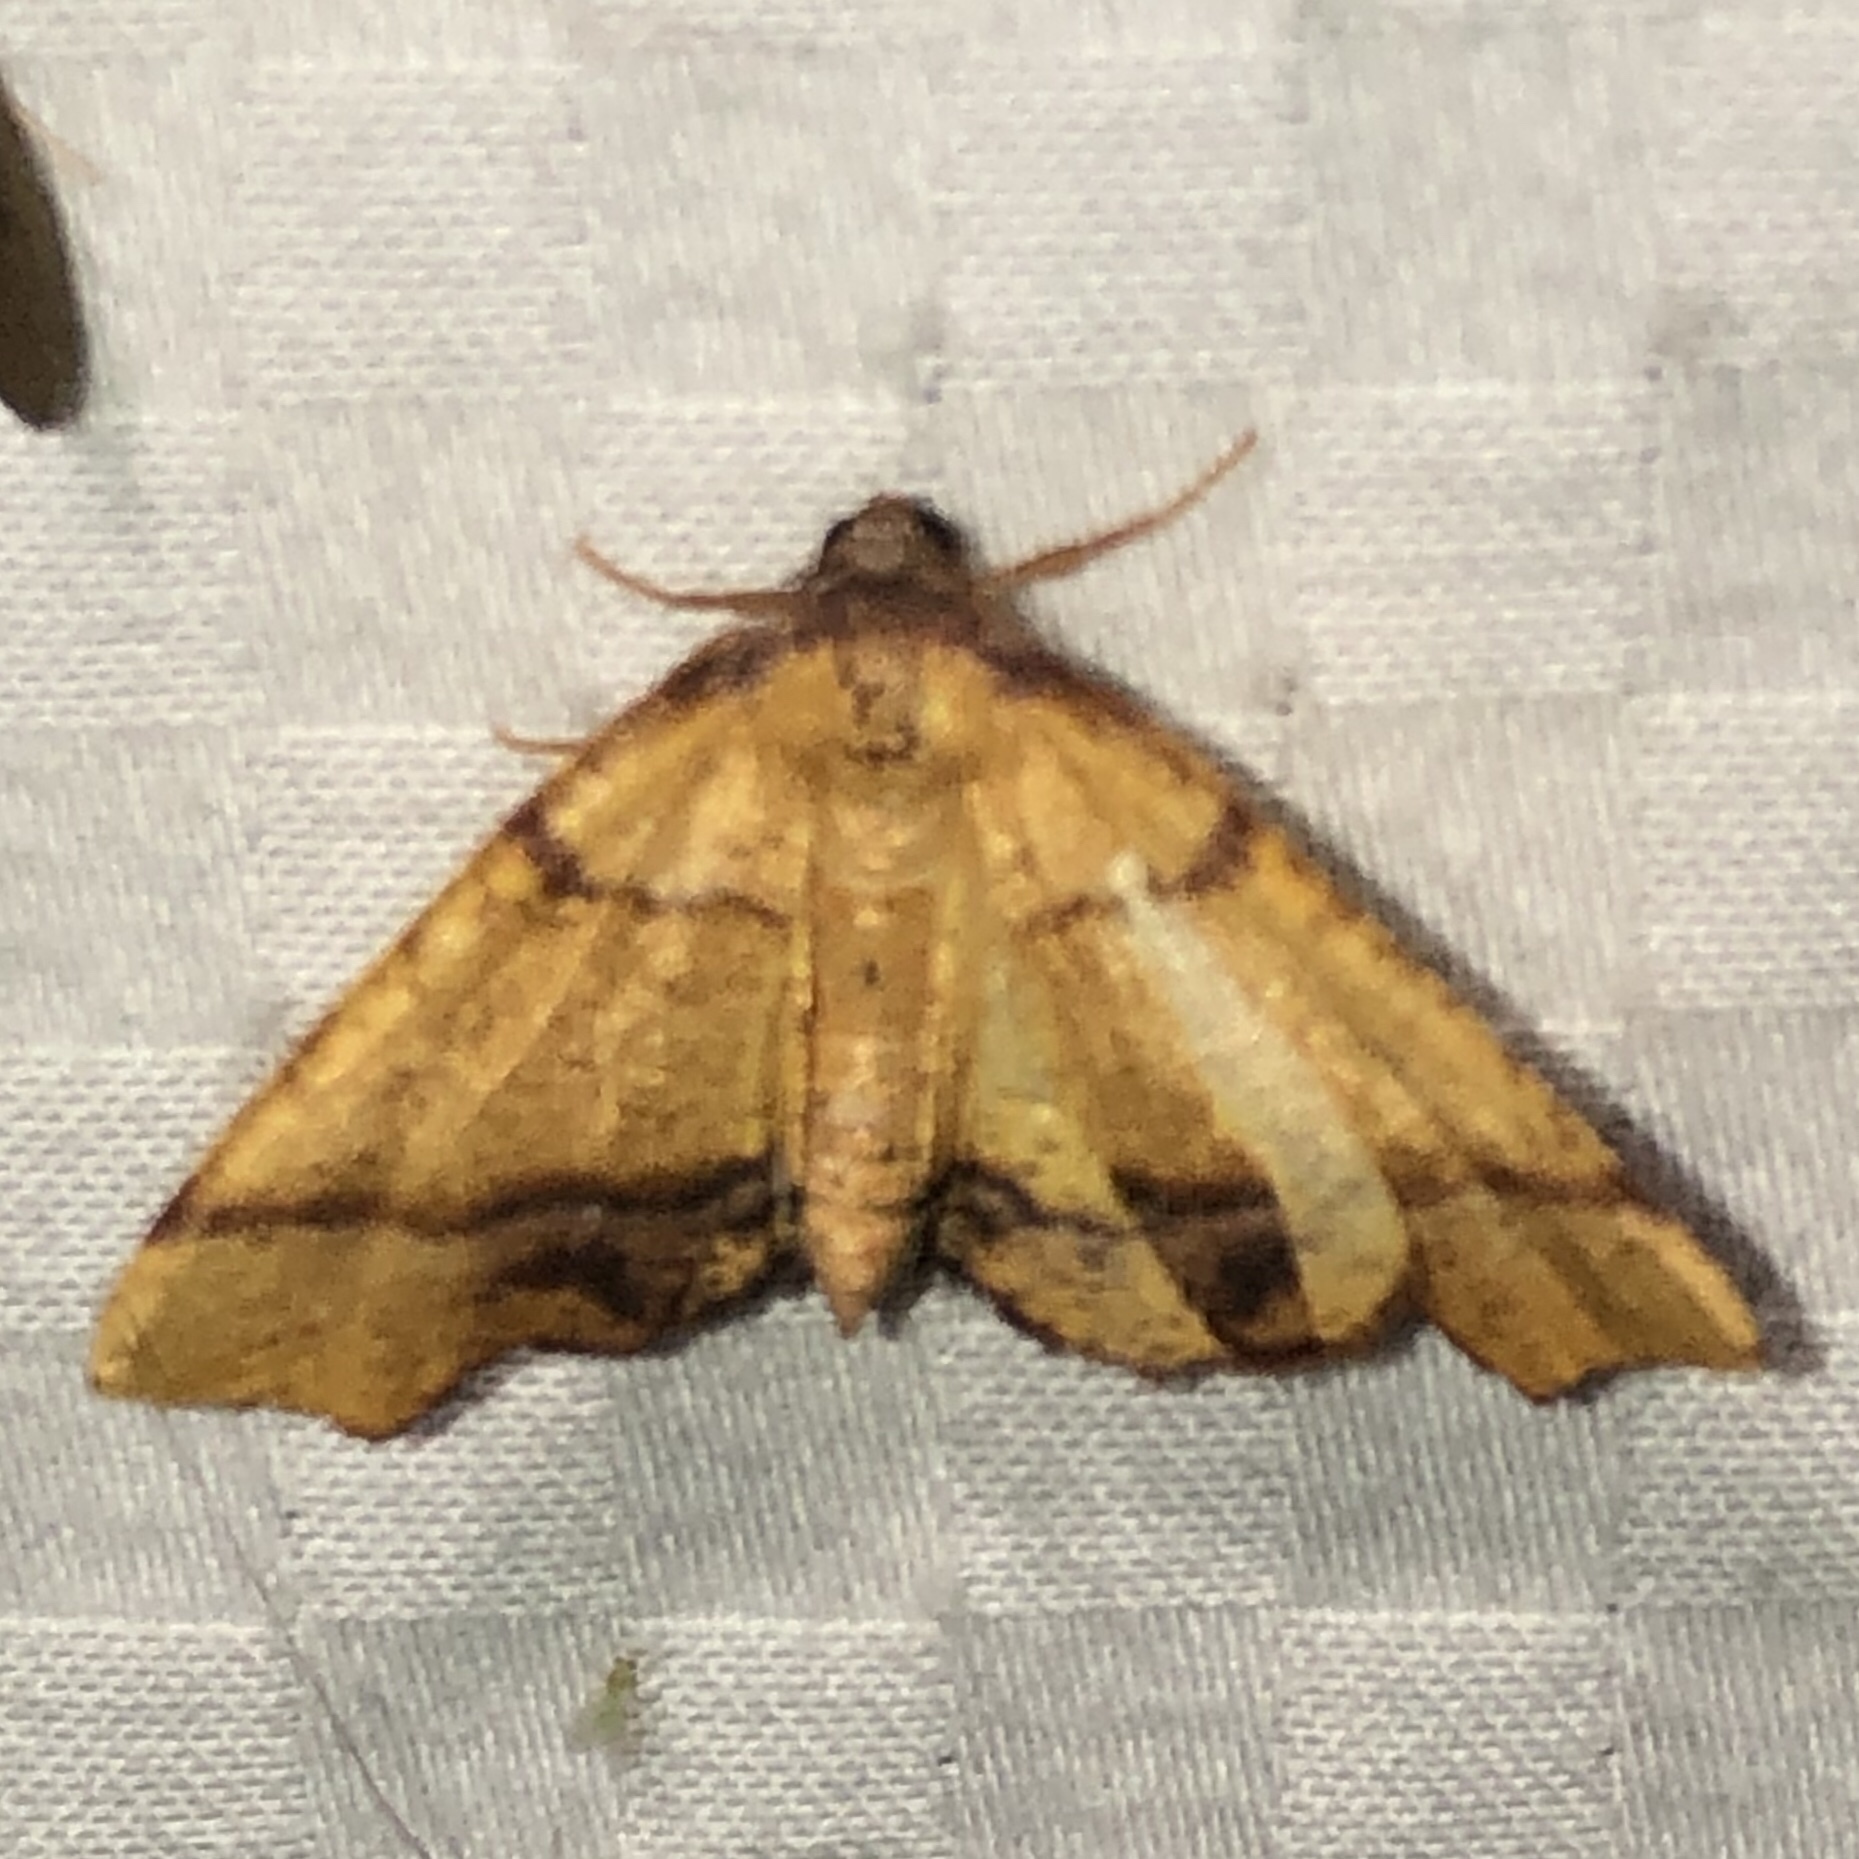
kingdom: Animalia
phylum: Arthropoda
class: Insecta
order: Lepidoptera
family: Geometridae
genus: Plagodis
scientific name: Plagodis phlogosaria
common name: Straight-lined plagodis
